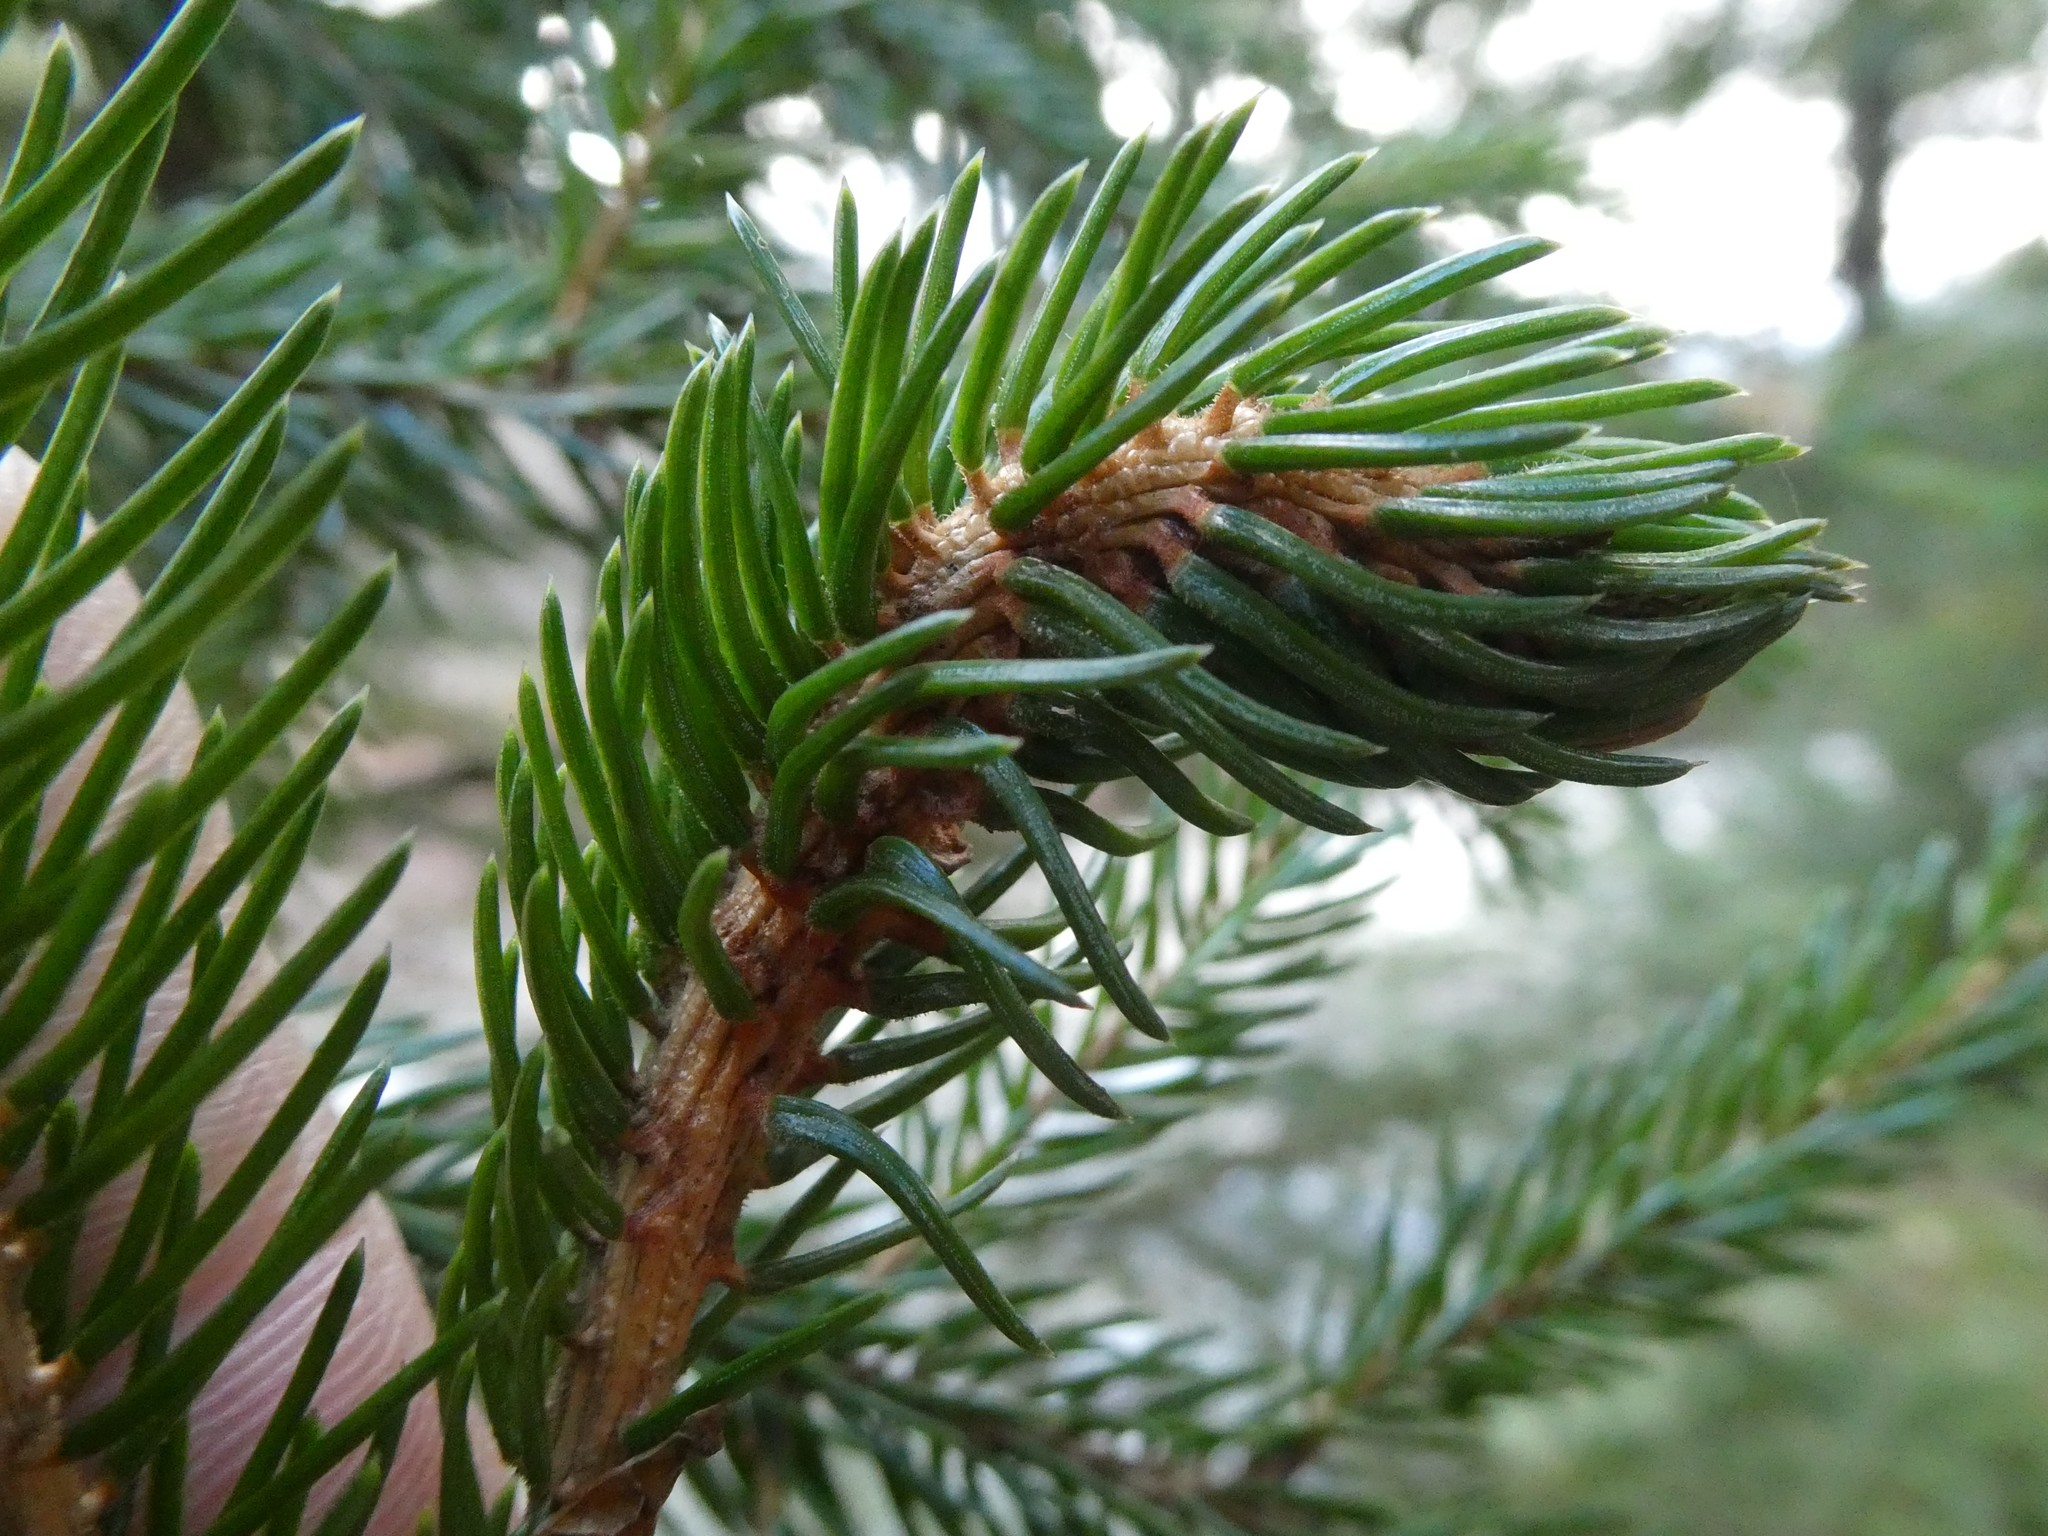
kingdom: Animalia
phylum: Arthropoda
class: Insecta
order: Hemiptera
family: Adelgidae
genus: Adelges
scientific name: Adelges abietis
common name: Eastern spruce gall adelgid
